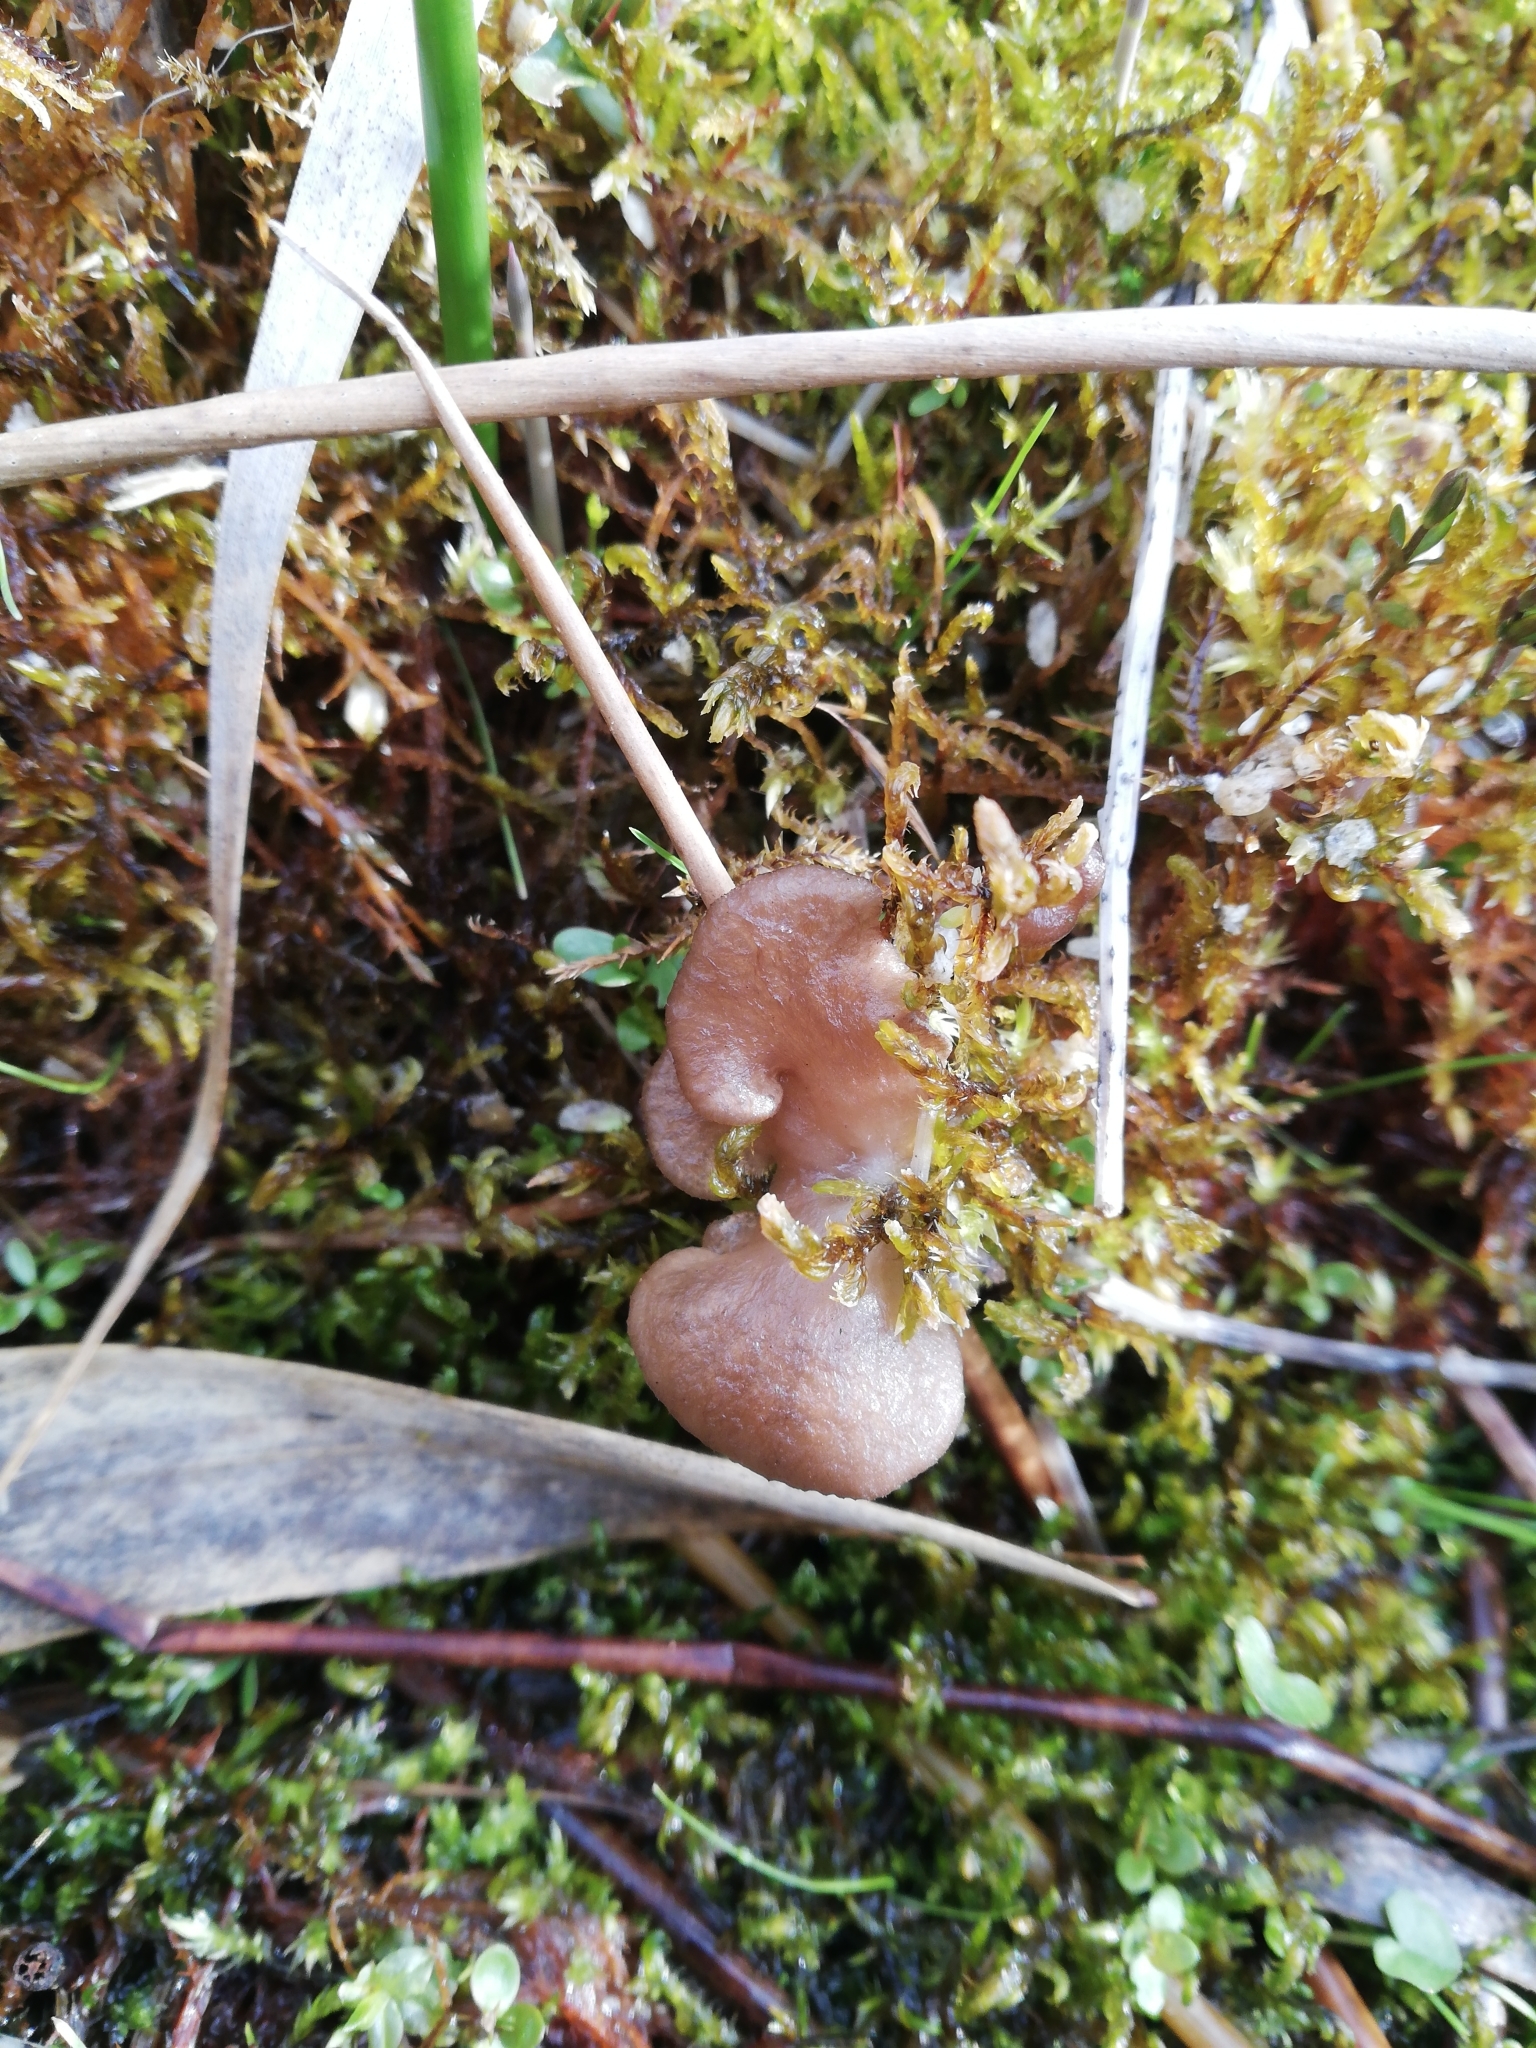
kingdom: Fungi
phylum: Basidiomycota
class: Agaricomycetes
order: Agaricales
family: Hygrophoraceae
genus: Arrhenia
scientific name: Arrhenia lobata
